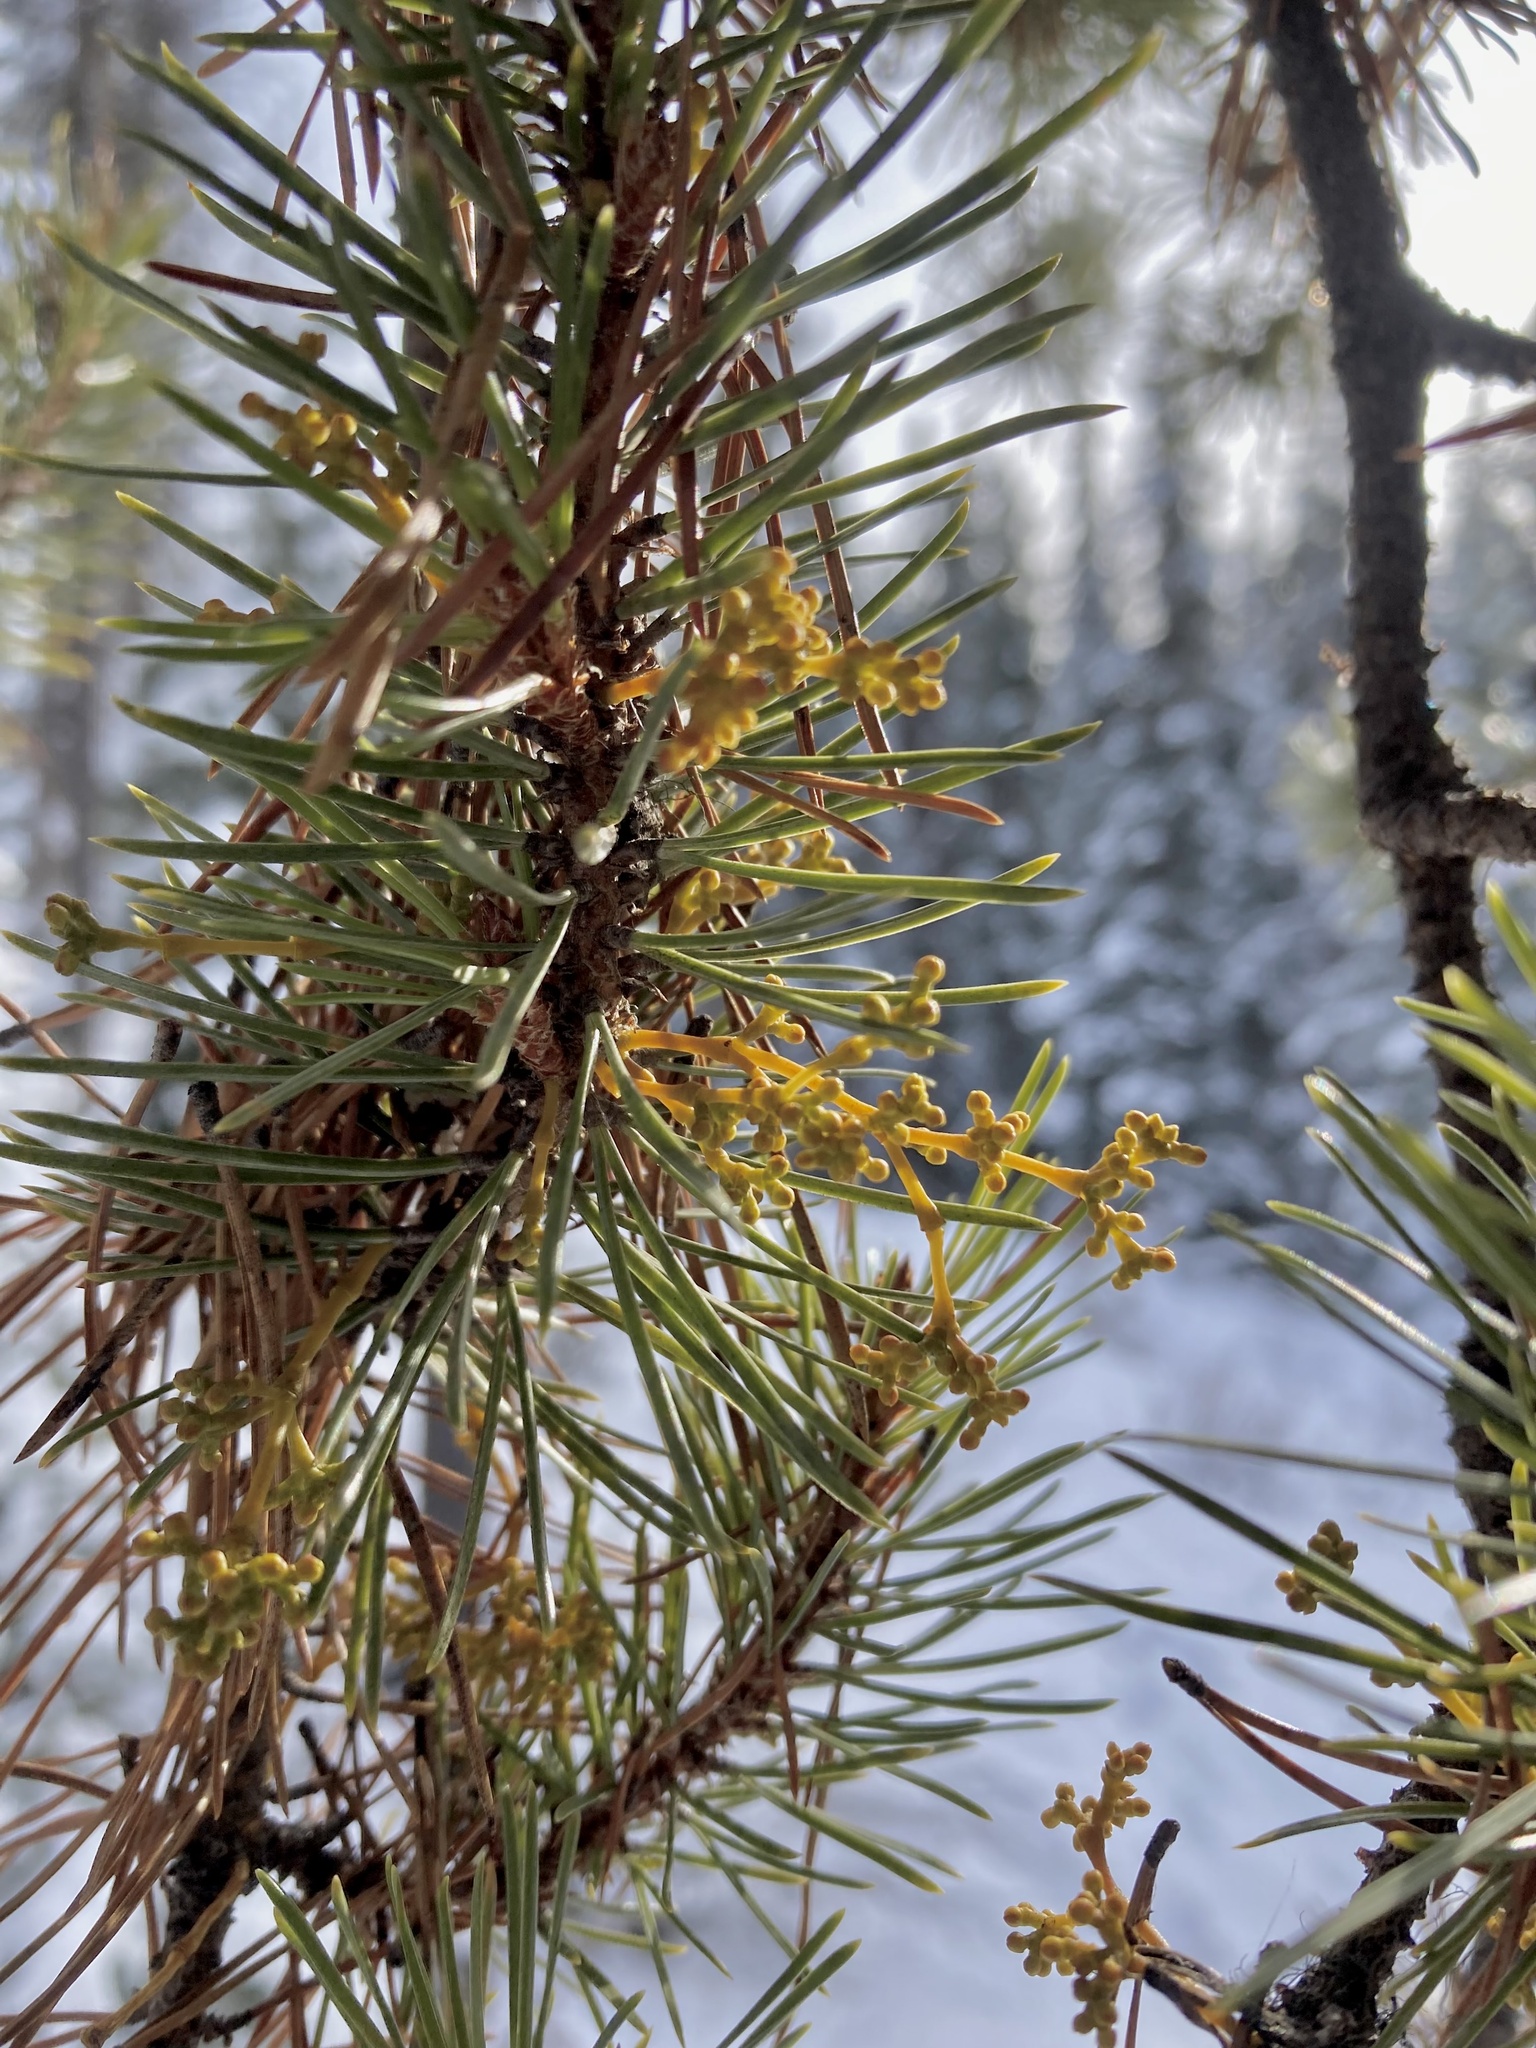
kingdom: Plantae
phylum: Tracheophyta
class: Magnoliopsida
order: Santalales
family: Viscaceae
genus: Arceuthobium
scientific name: Arceuthobium americanum
